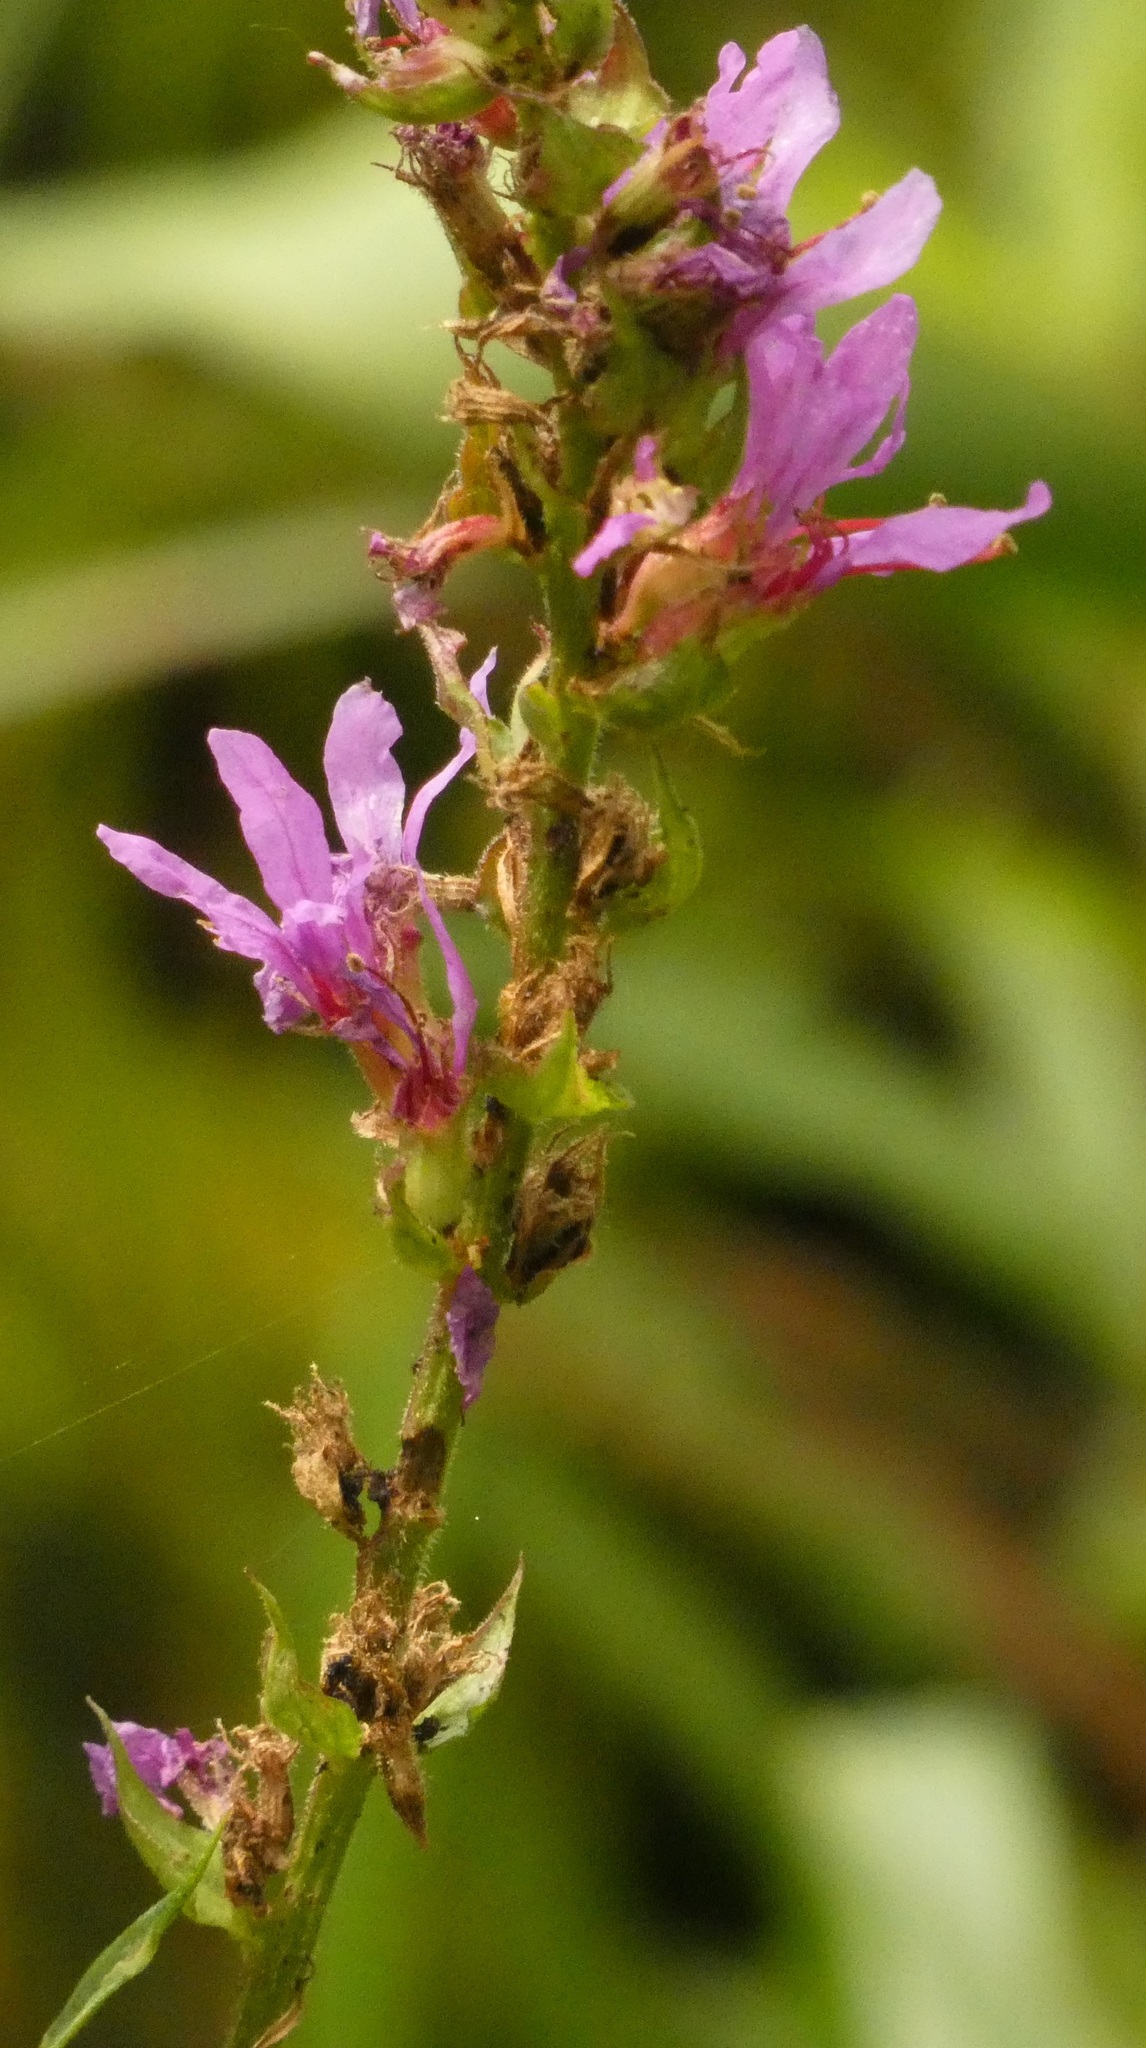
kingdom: Plantae
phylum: Tracheophyta
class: Magnoliopsida
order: Myrtales
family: Lythraceae
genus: Lythrum
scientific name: Lythrum salicaria
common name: Purple loosestrife
